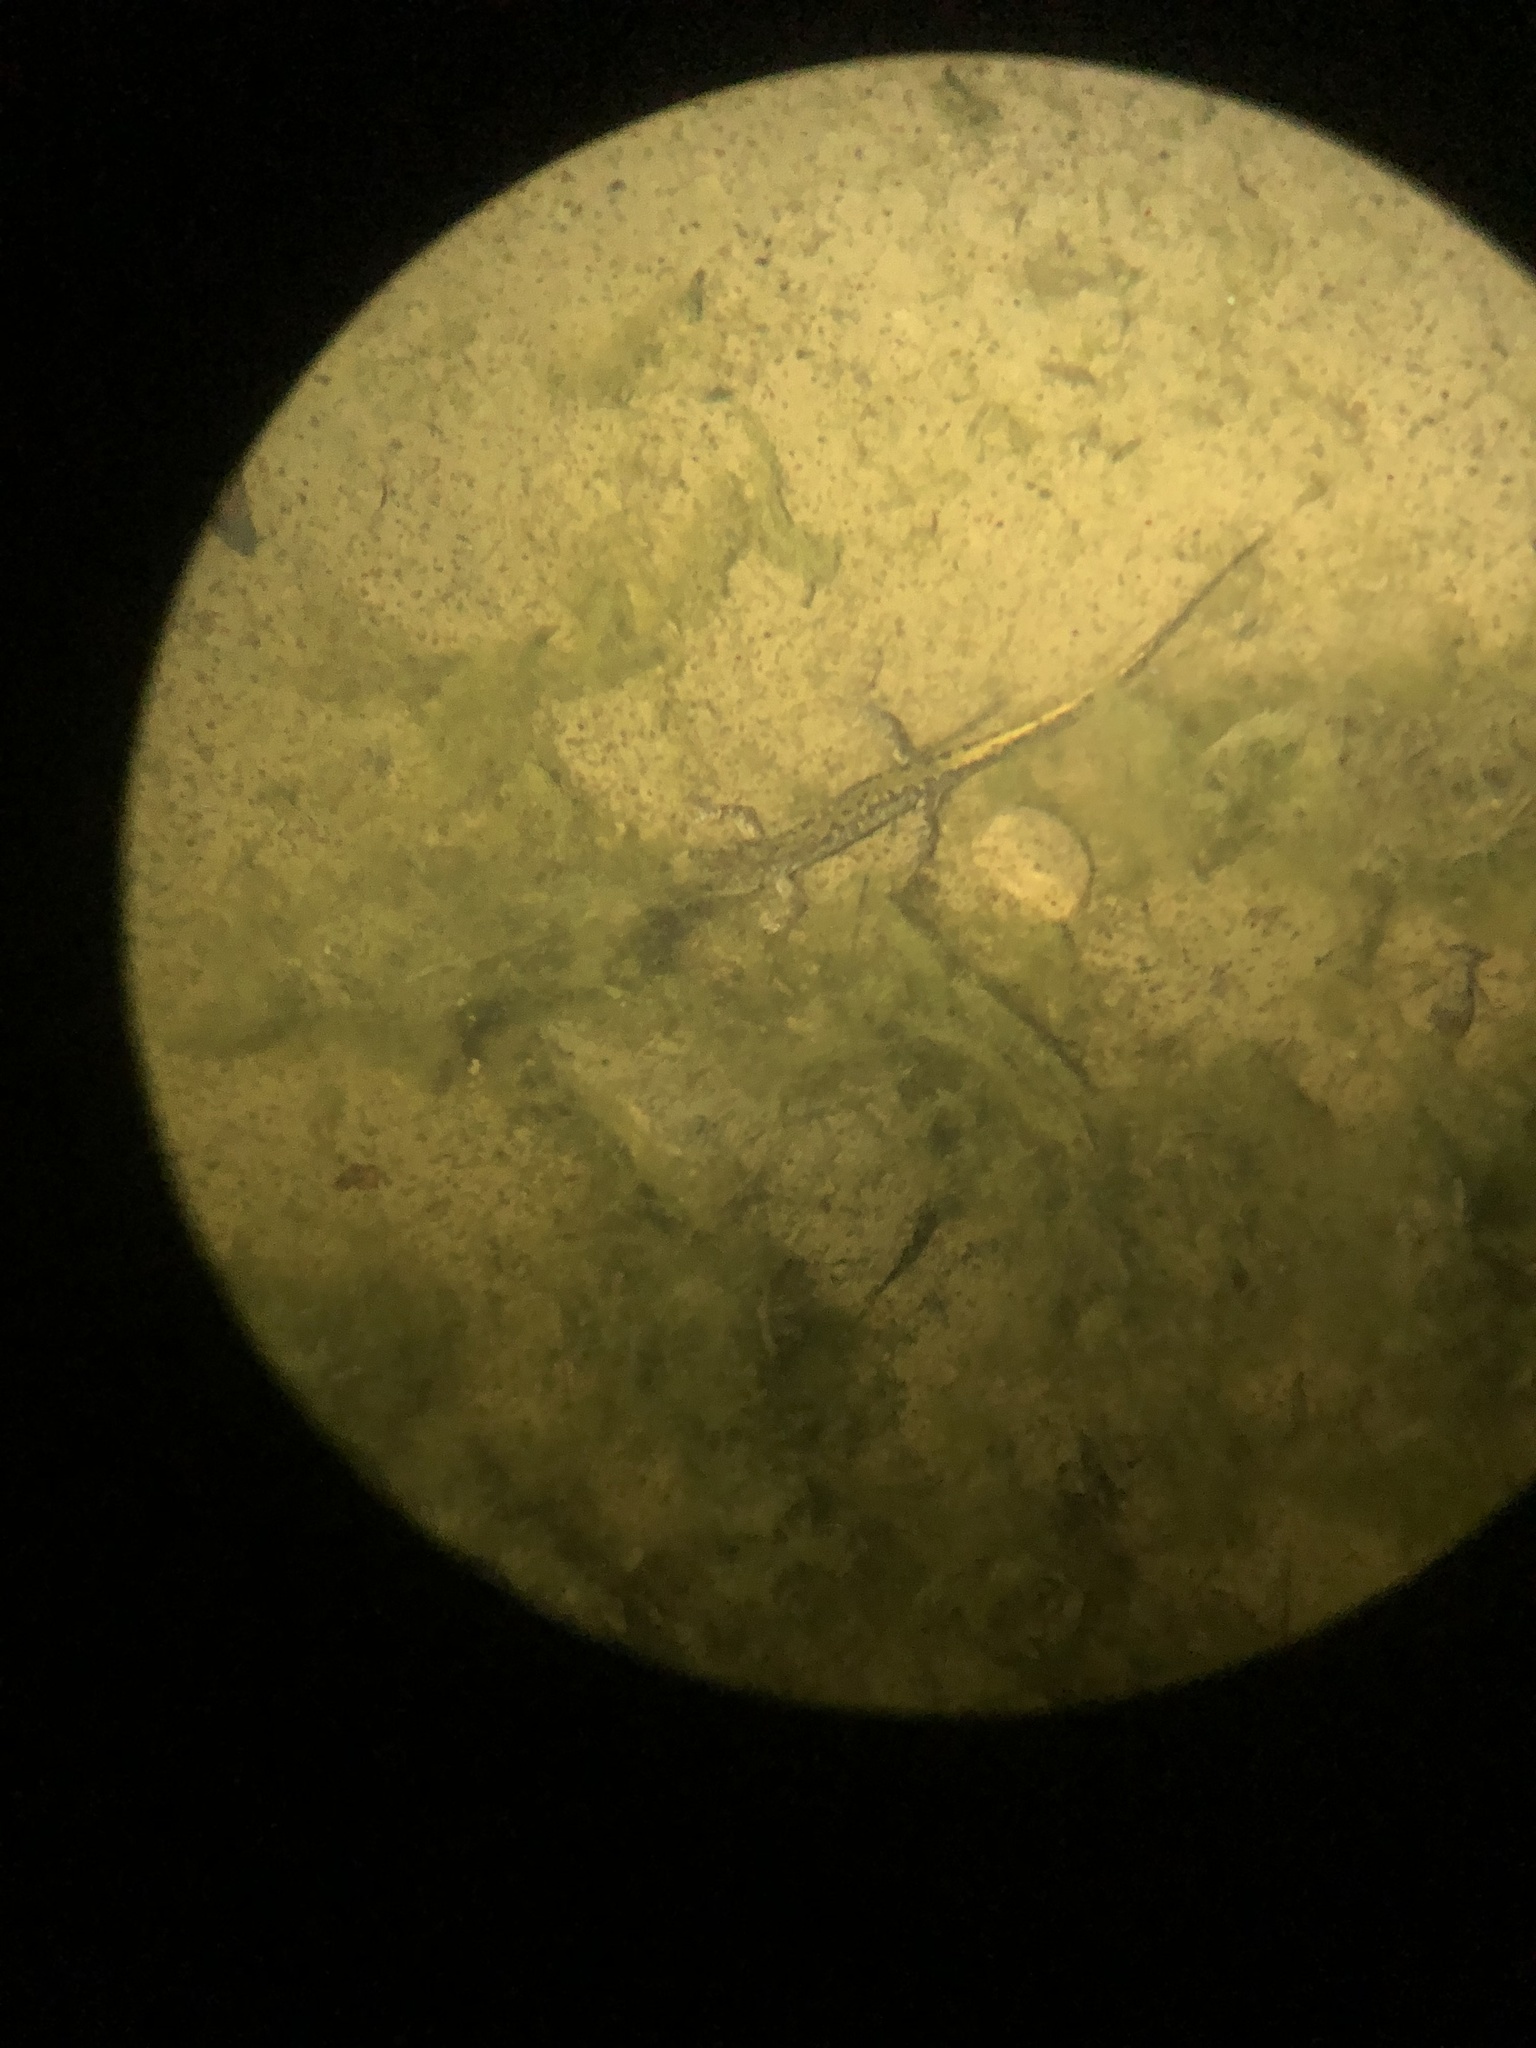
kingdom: Animalia
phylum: Chordata
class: Amphibia
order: Caudata
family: Ambystomatidae
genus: Ambystoma
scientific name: Ambystoma macrodactylum
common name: Long-toed salamander
